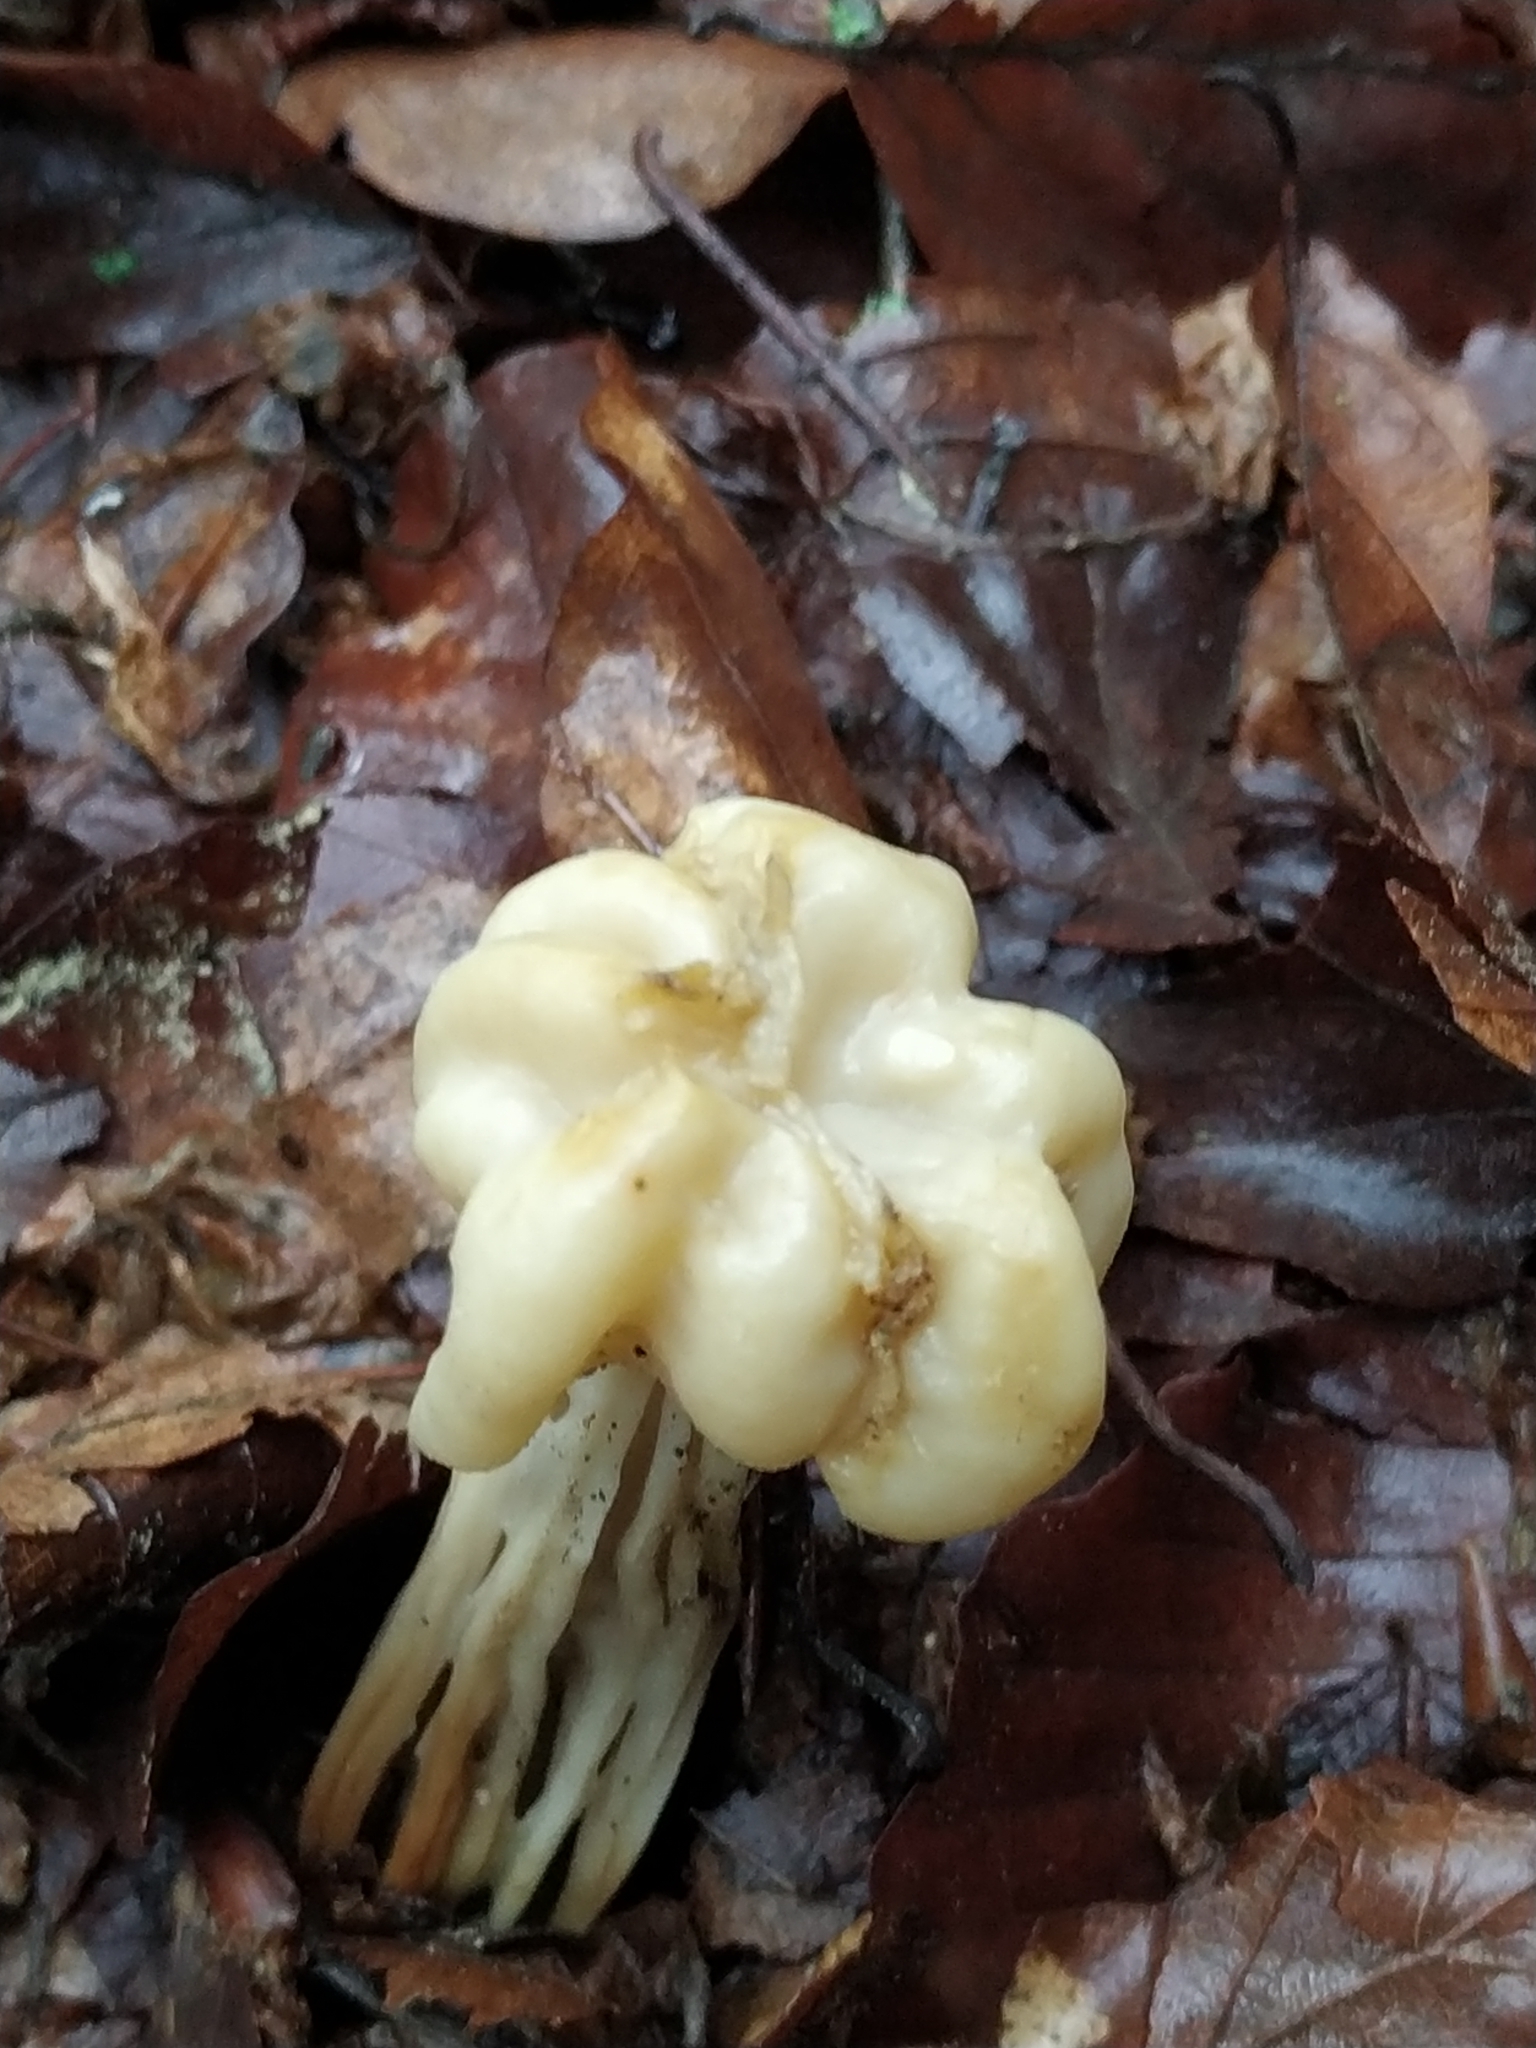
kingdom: Fungi
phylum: Ascomycota
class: Pezizomycetes
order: Pezizales
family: Helvellaceae
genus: Helvella
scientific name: Helvella crispa
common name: White saddle
